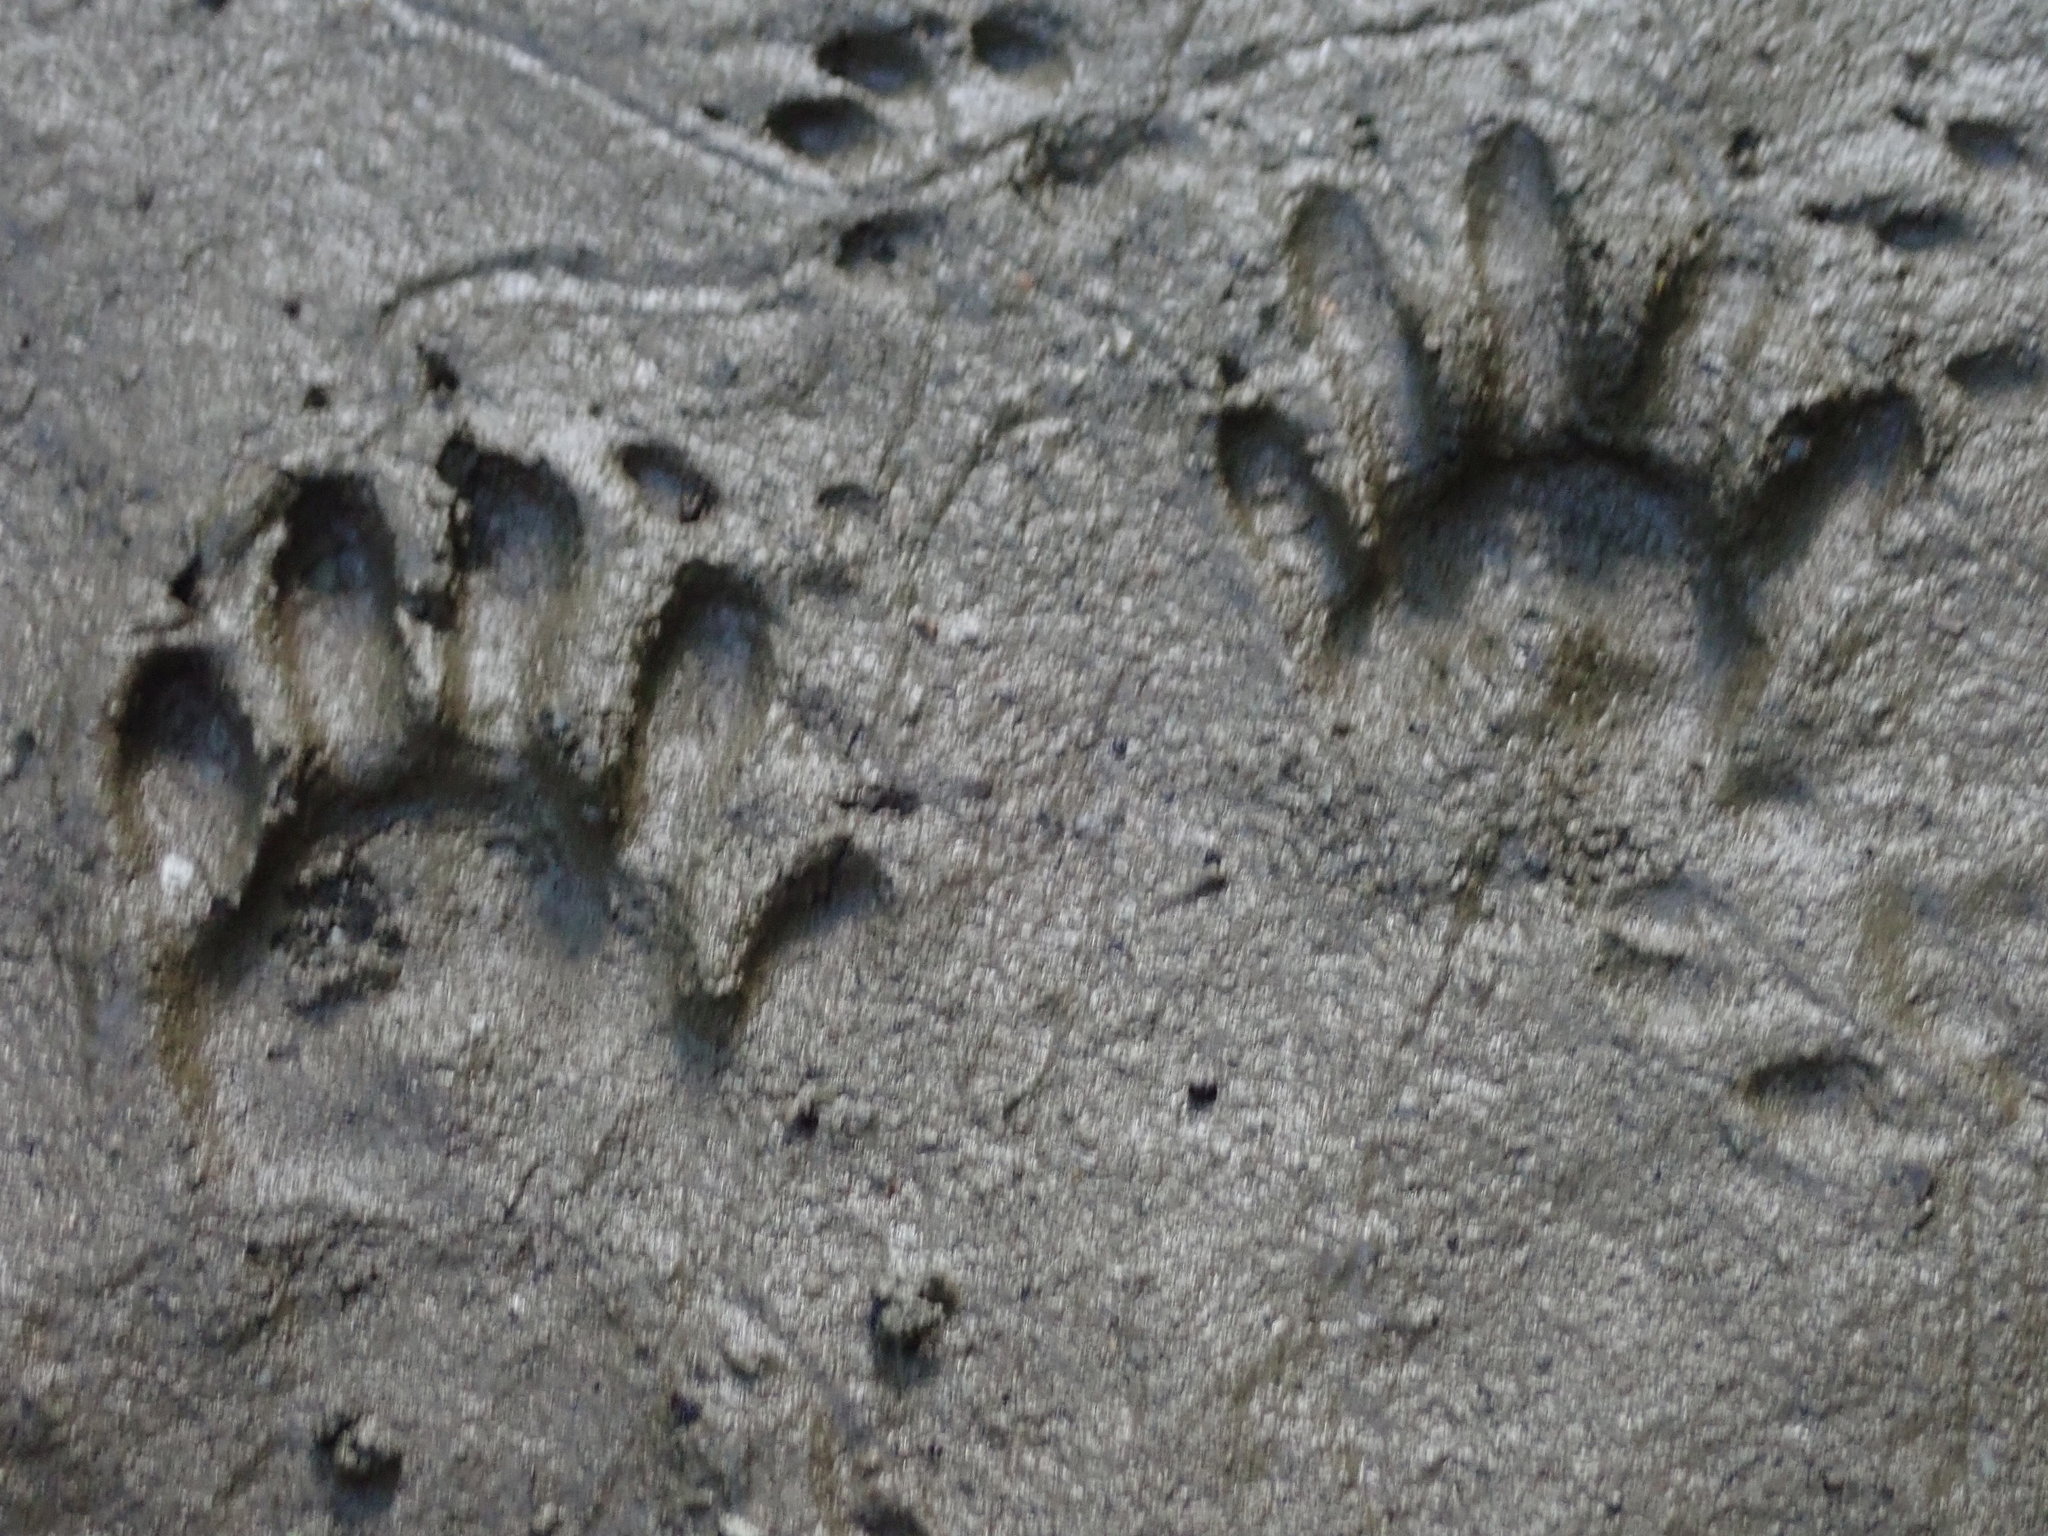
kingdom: Animalia
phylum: Chordata
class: Mammalia
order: Carnivora
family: Procyonidae
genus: Procyon
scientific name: Procyon lotor
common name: Raccoon
